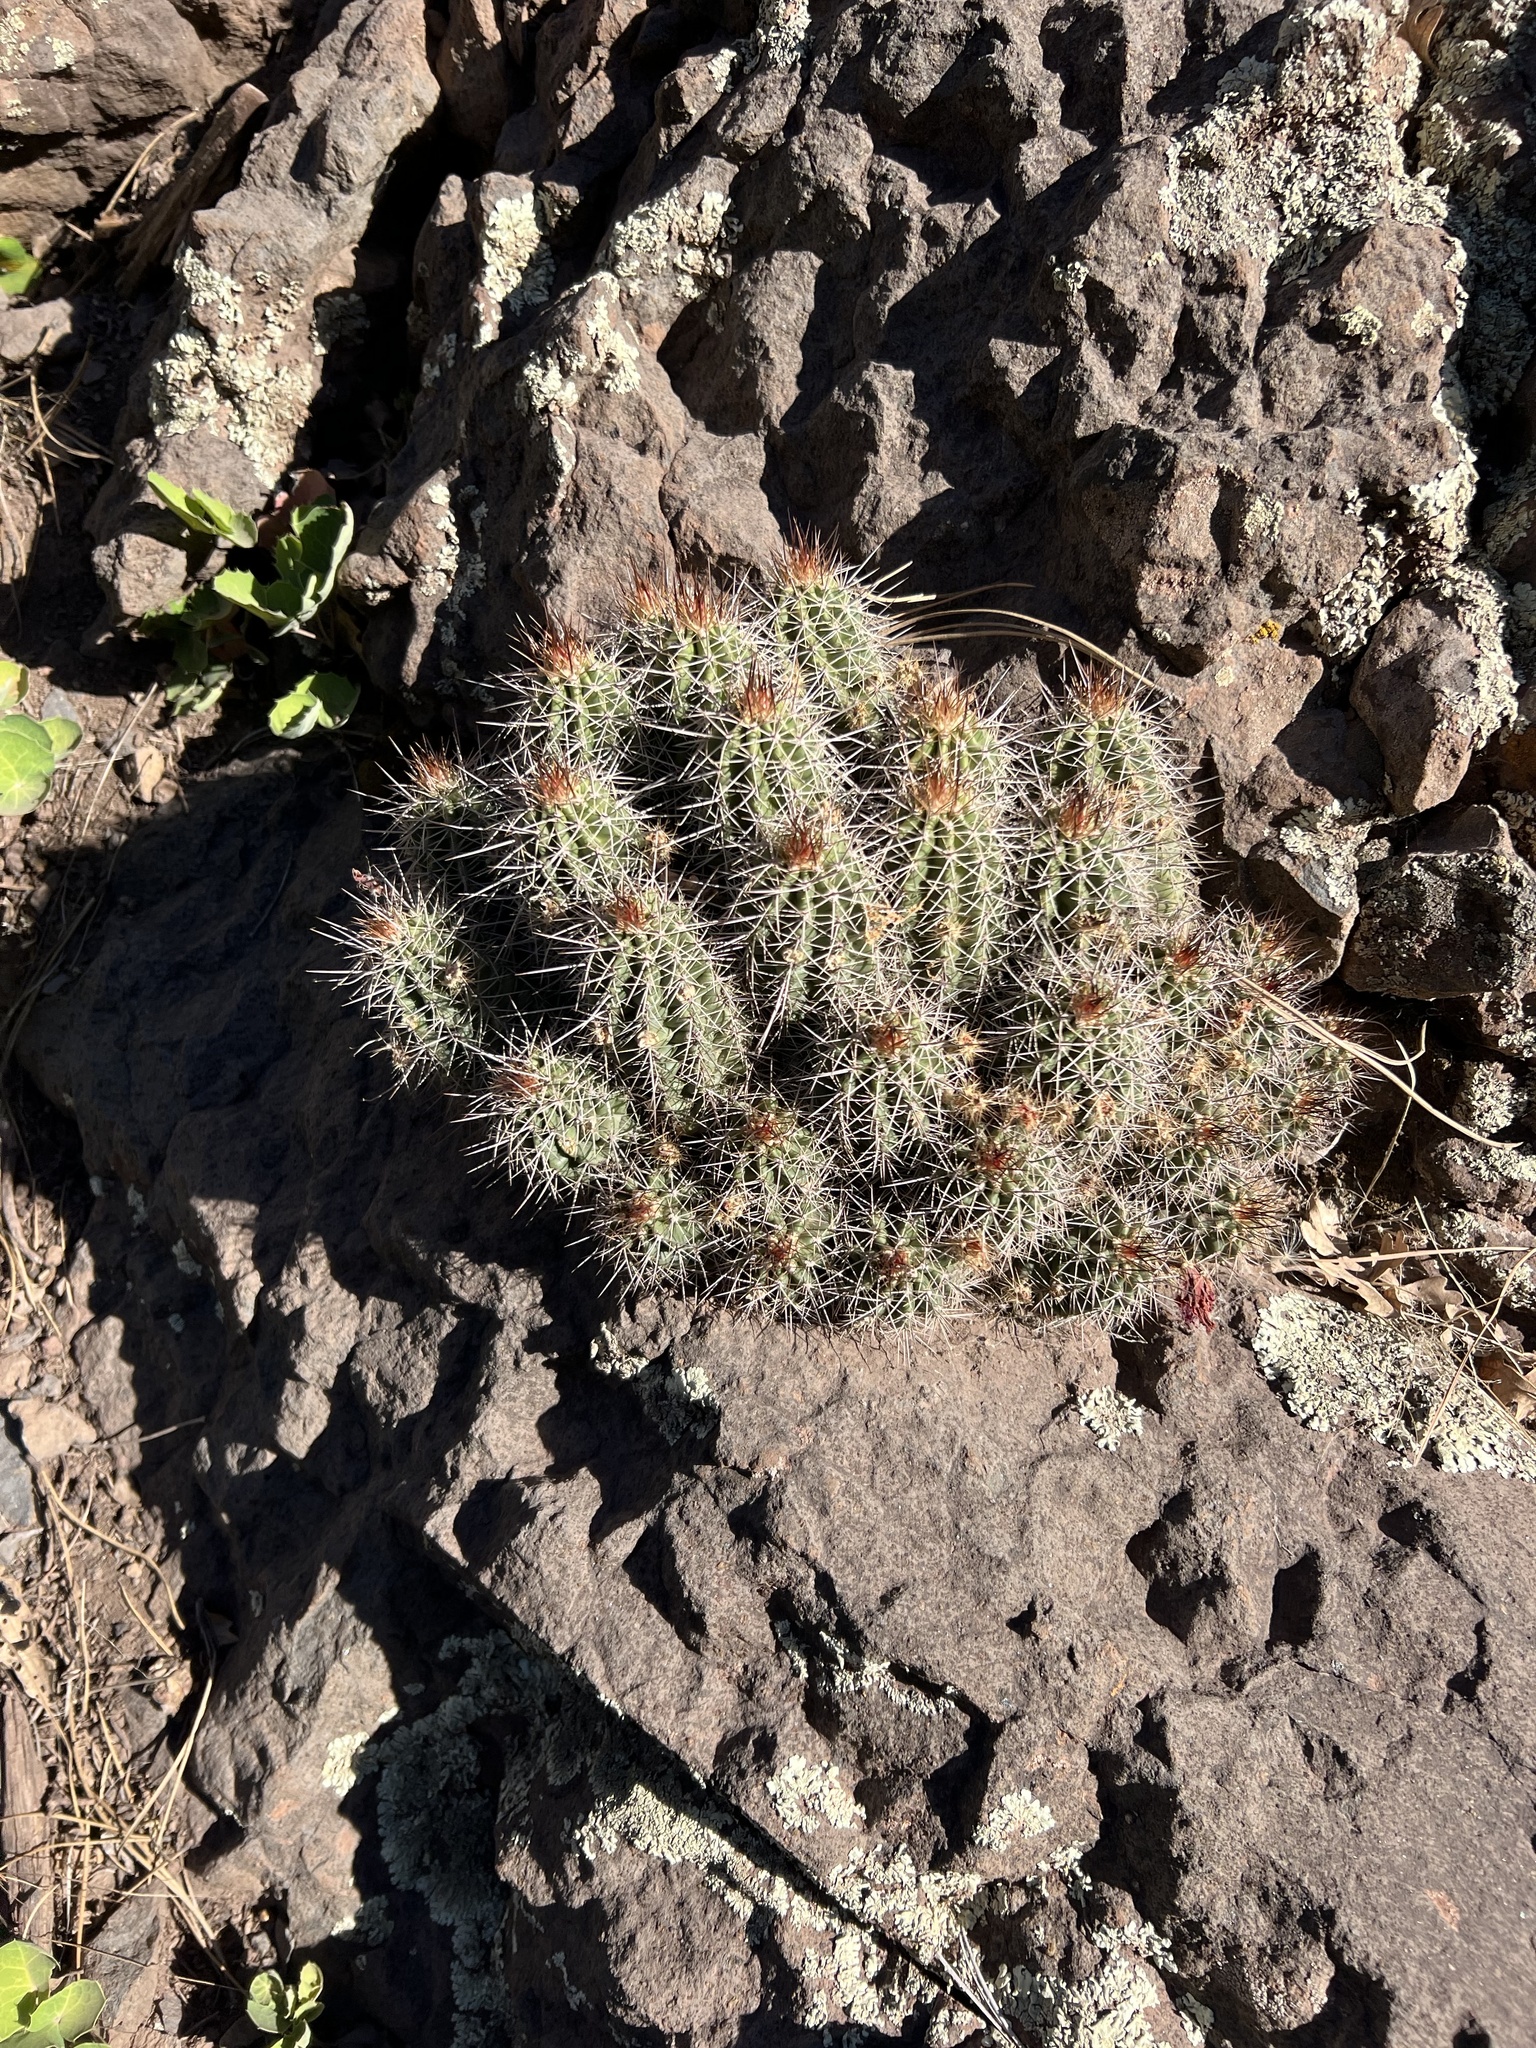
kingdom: Plantae
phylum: Tracheophyta
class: Magnoliopsida
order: Caryophyllales
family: Cactaceae
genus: Echinocereus
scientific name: Echinocereus bakeri
